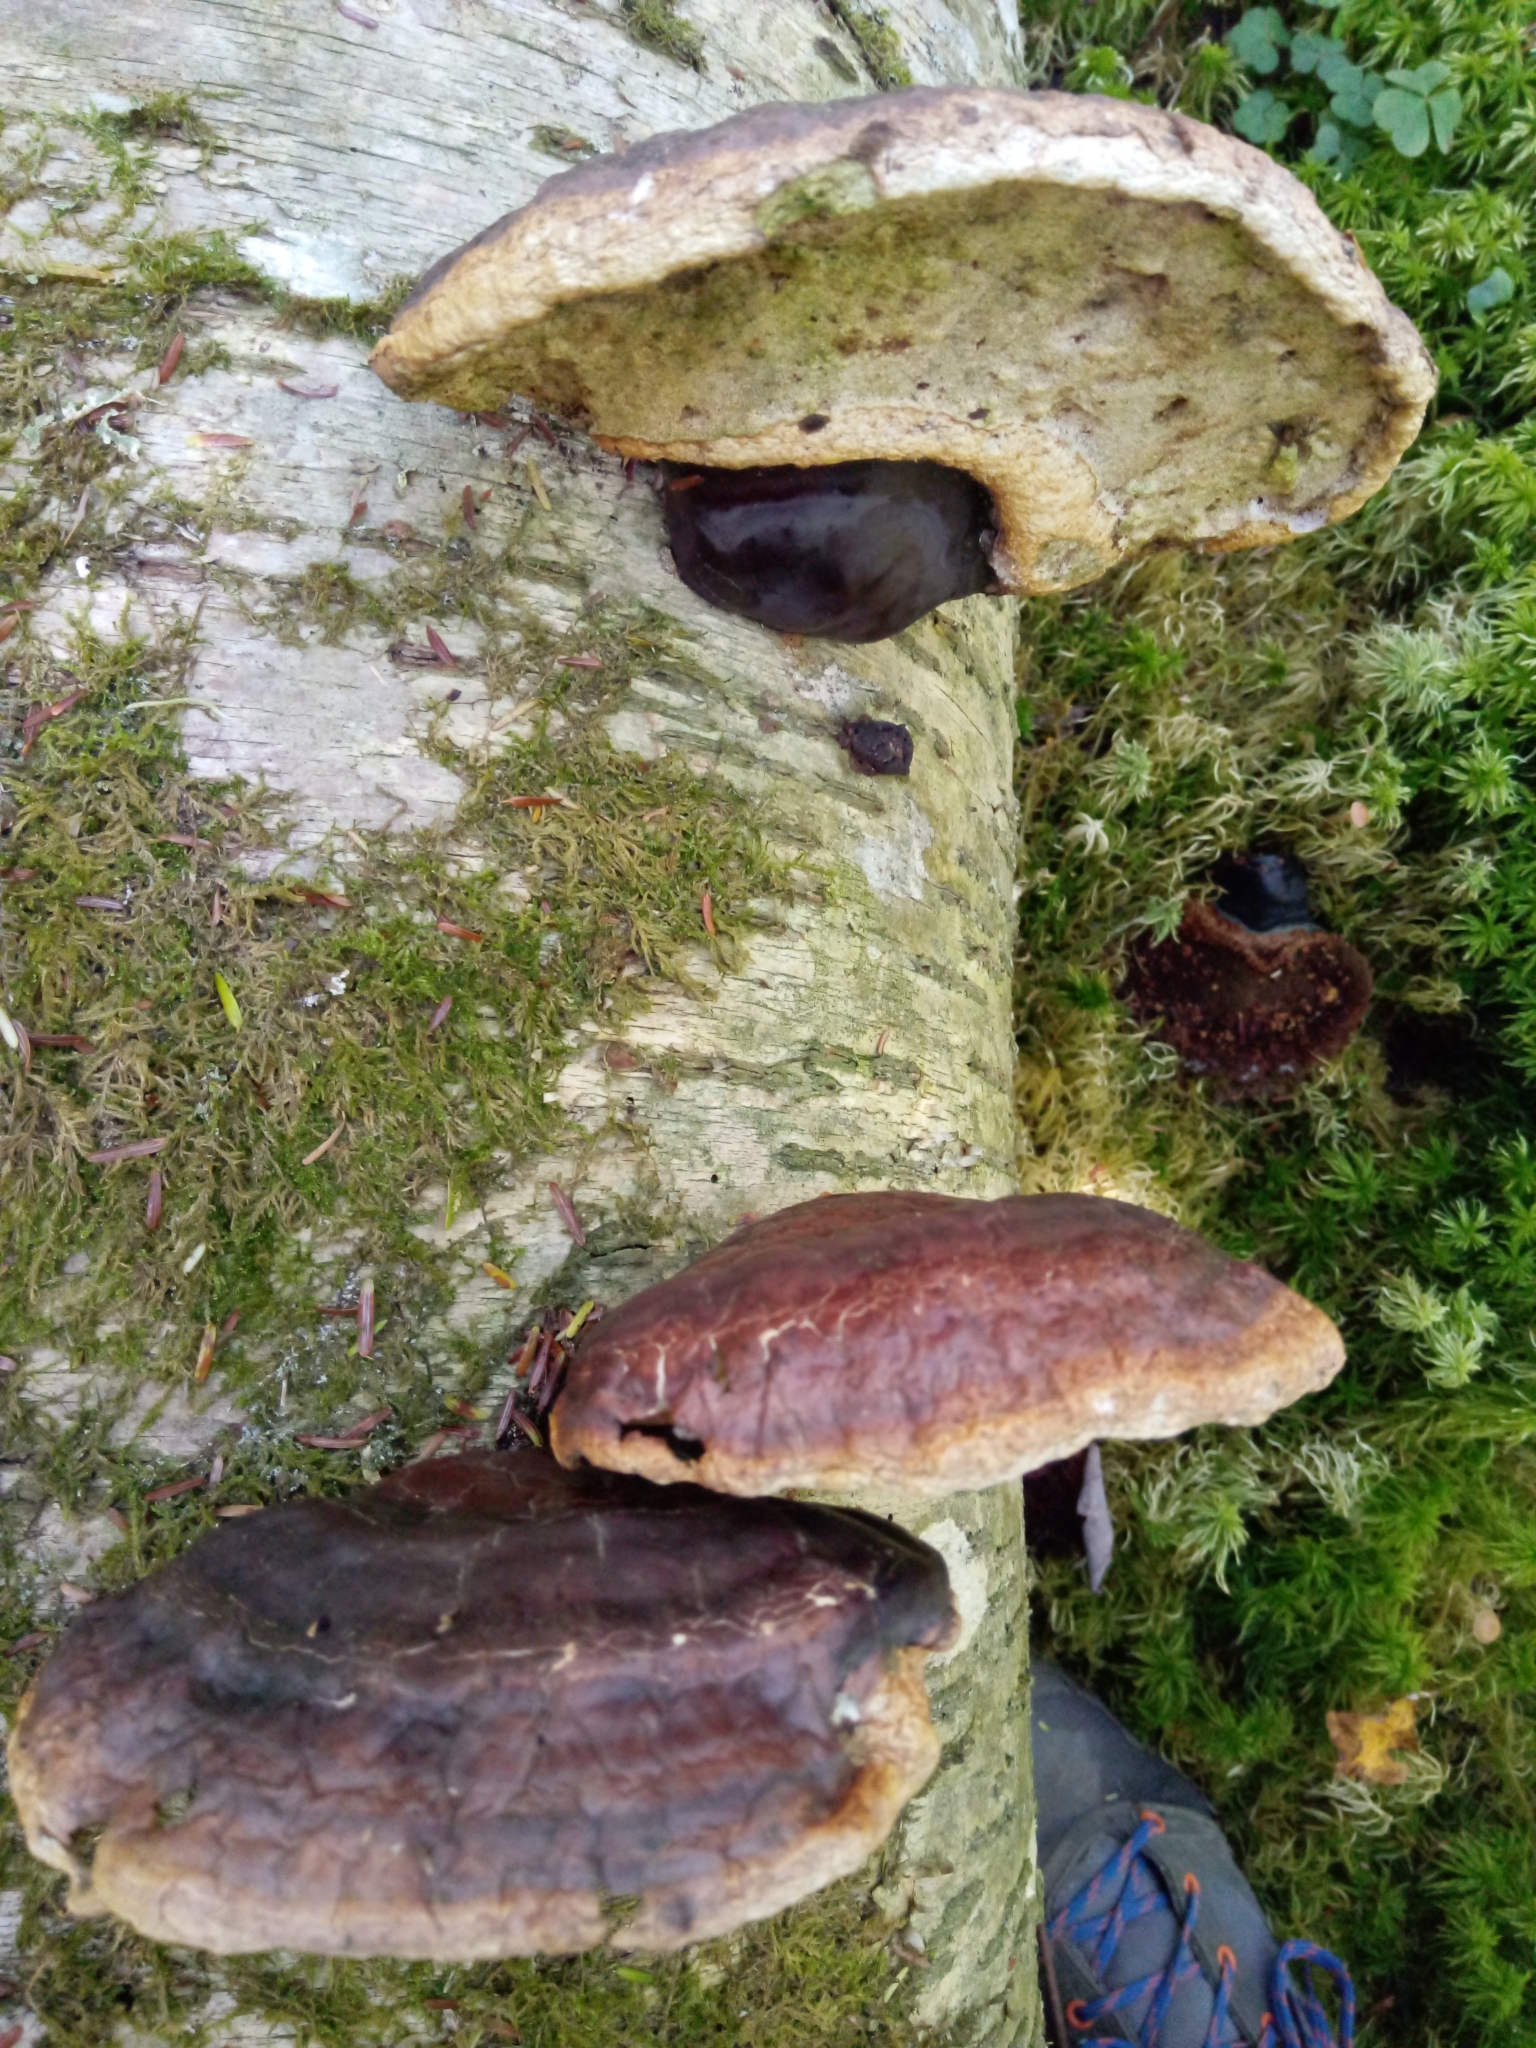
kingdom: Fungi
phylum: Basidiomycota
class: Agaricomycetes
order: Polyporales
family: Polyporaceae
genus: Ganoderma
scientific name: Ganoderma tsugae
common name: Hemlock varnish shelf
